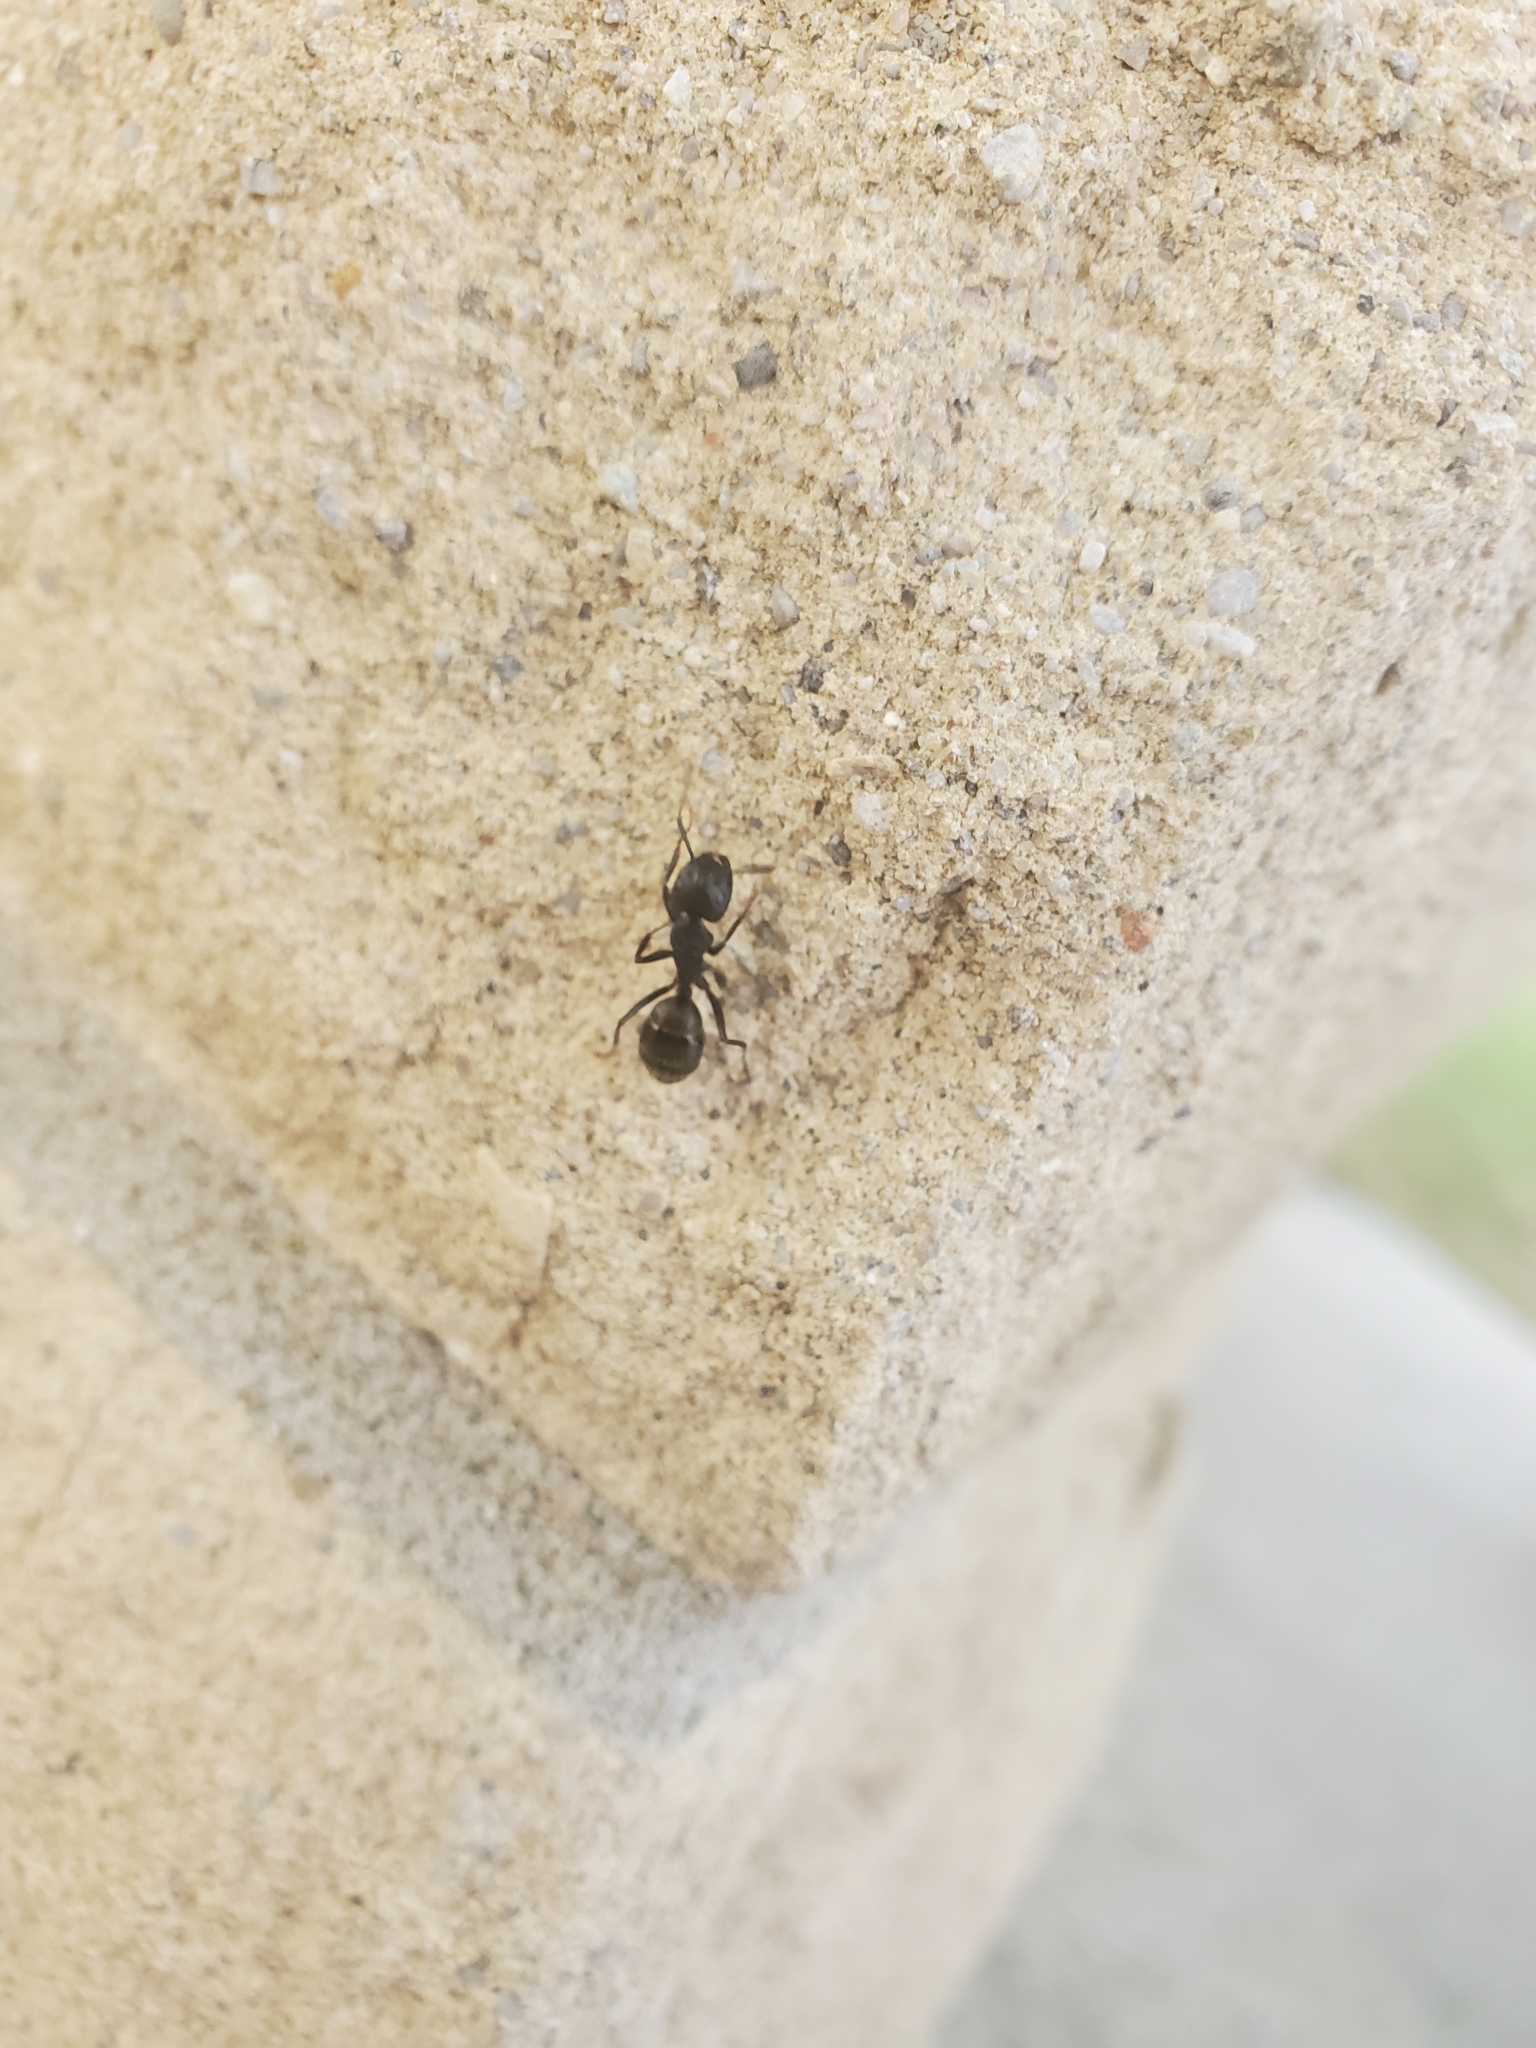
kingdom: Animalia
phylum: Arthropoda
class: Insecta
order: Hymenoptera
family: Formicidae
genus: Camponotus
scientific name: Camponotus pennsylvanicus
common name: Black carpenter ant
